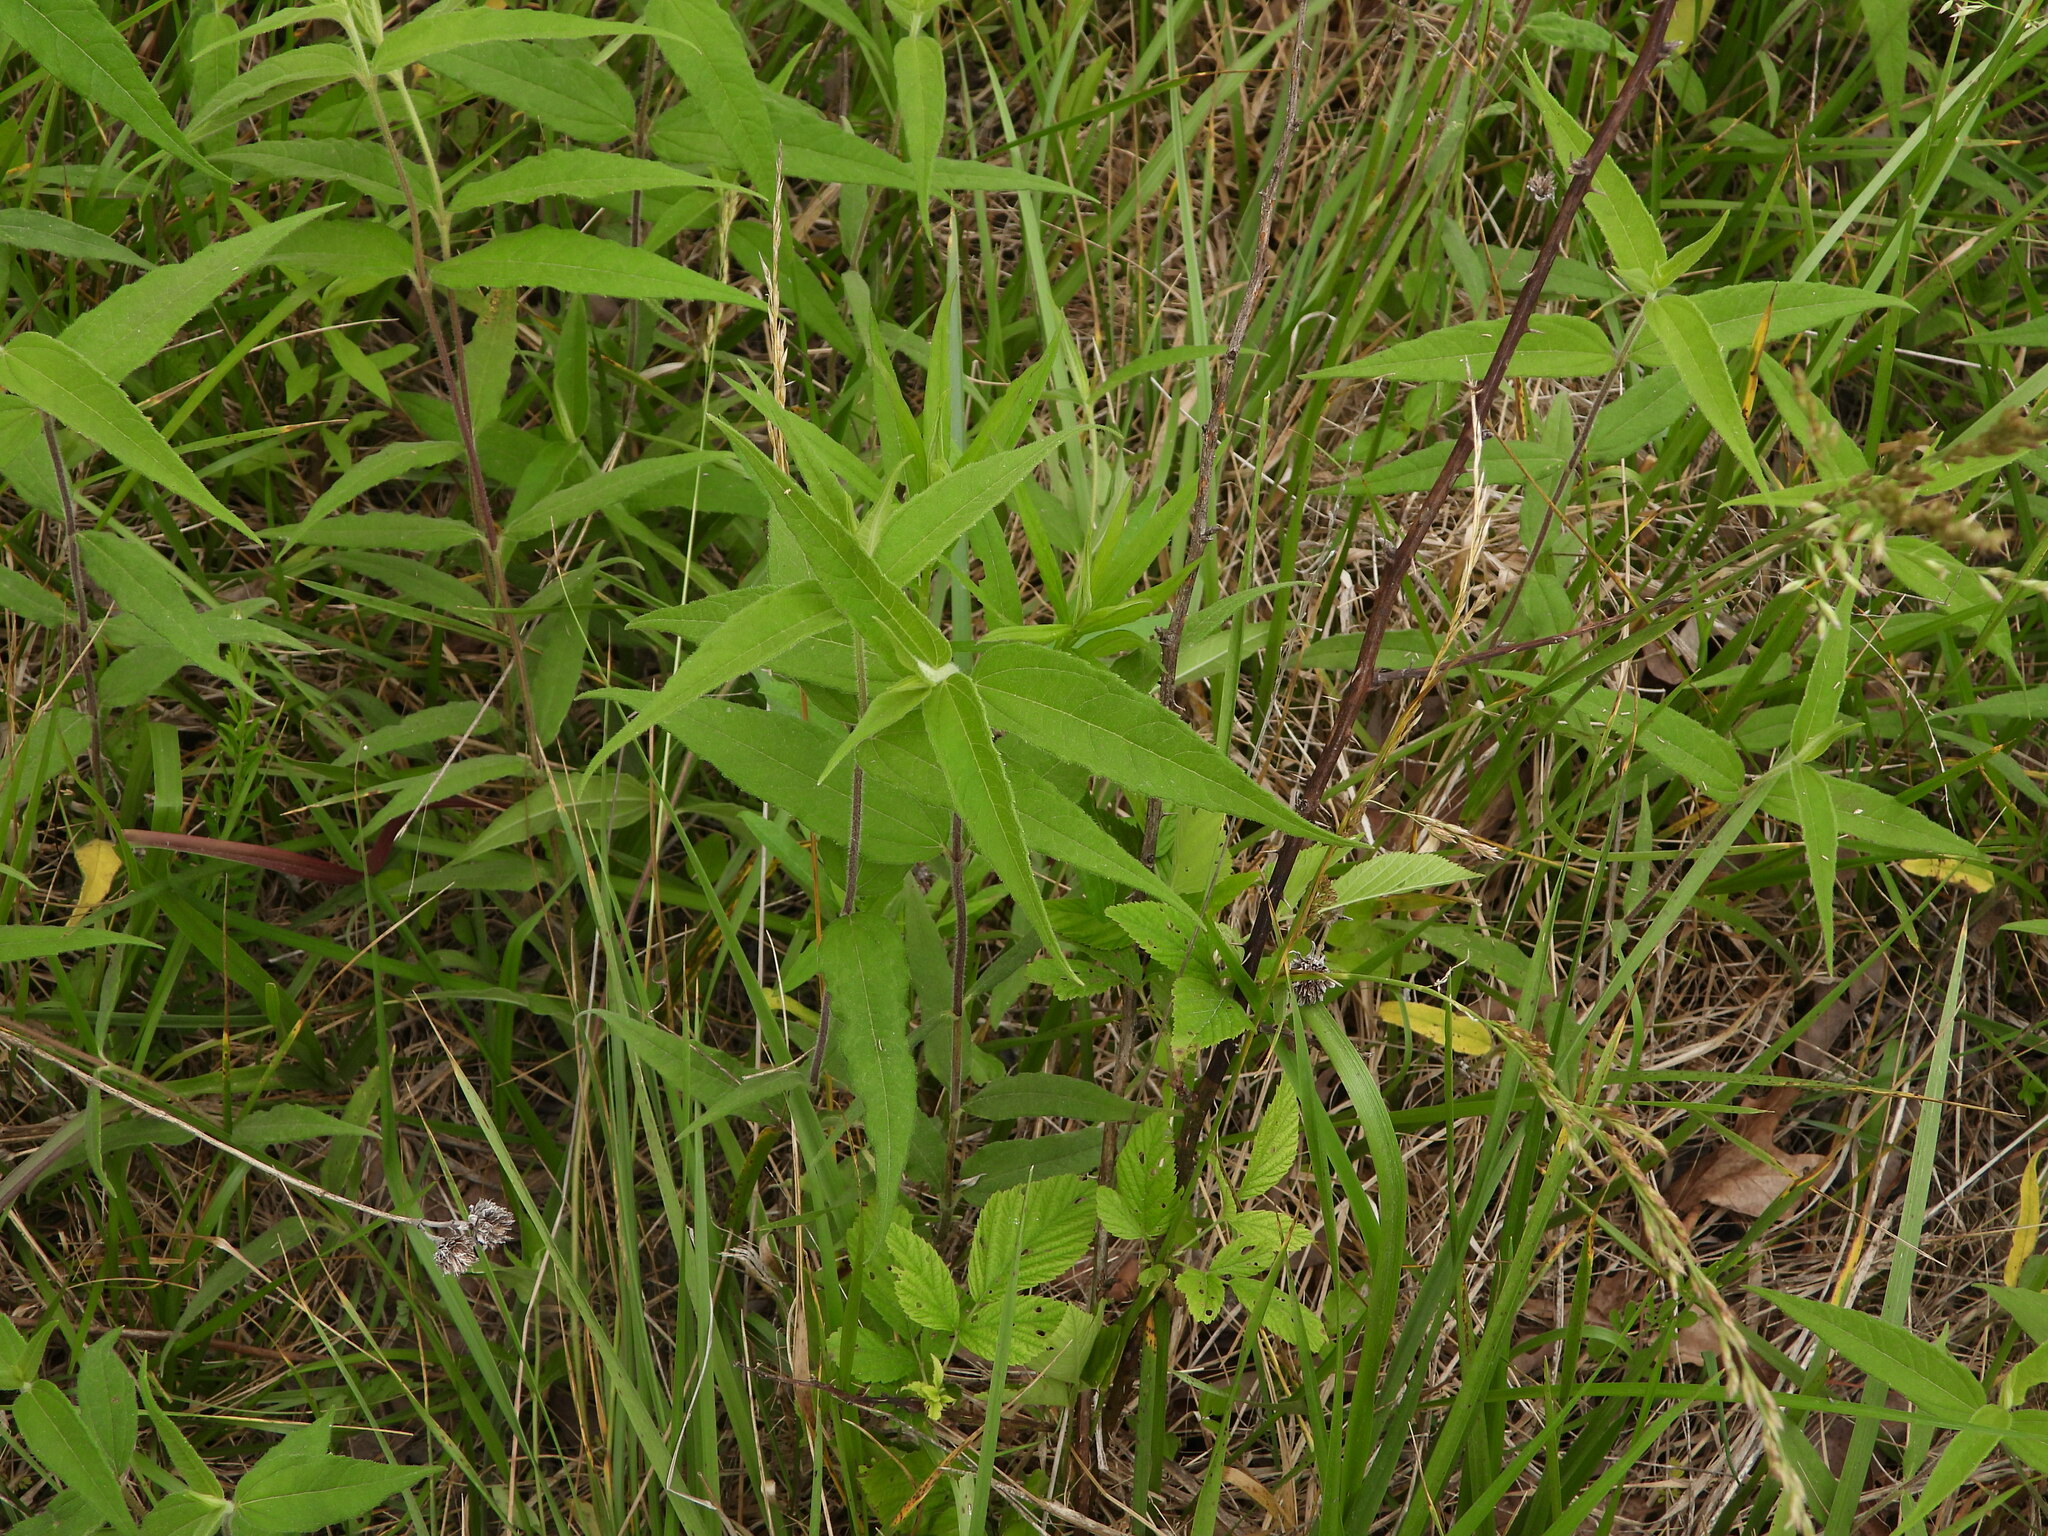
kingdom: Plantae
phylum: Tracheophyta
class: Magnoliopsida
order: Asterales
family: Asteraceae
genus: Helianthus
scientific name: Helianthus hirsutus
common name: Hairy sunflower
